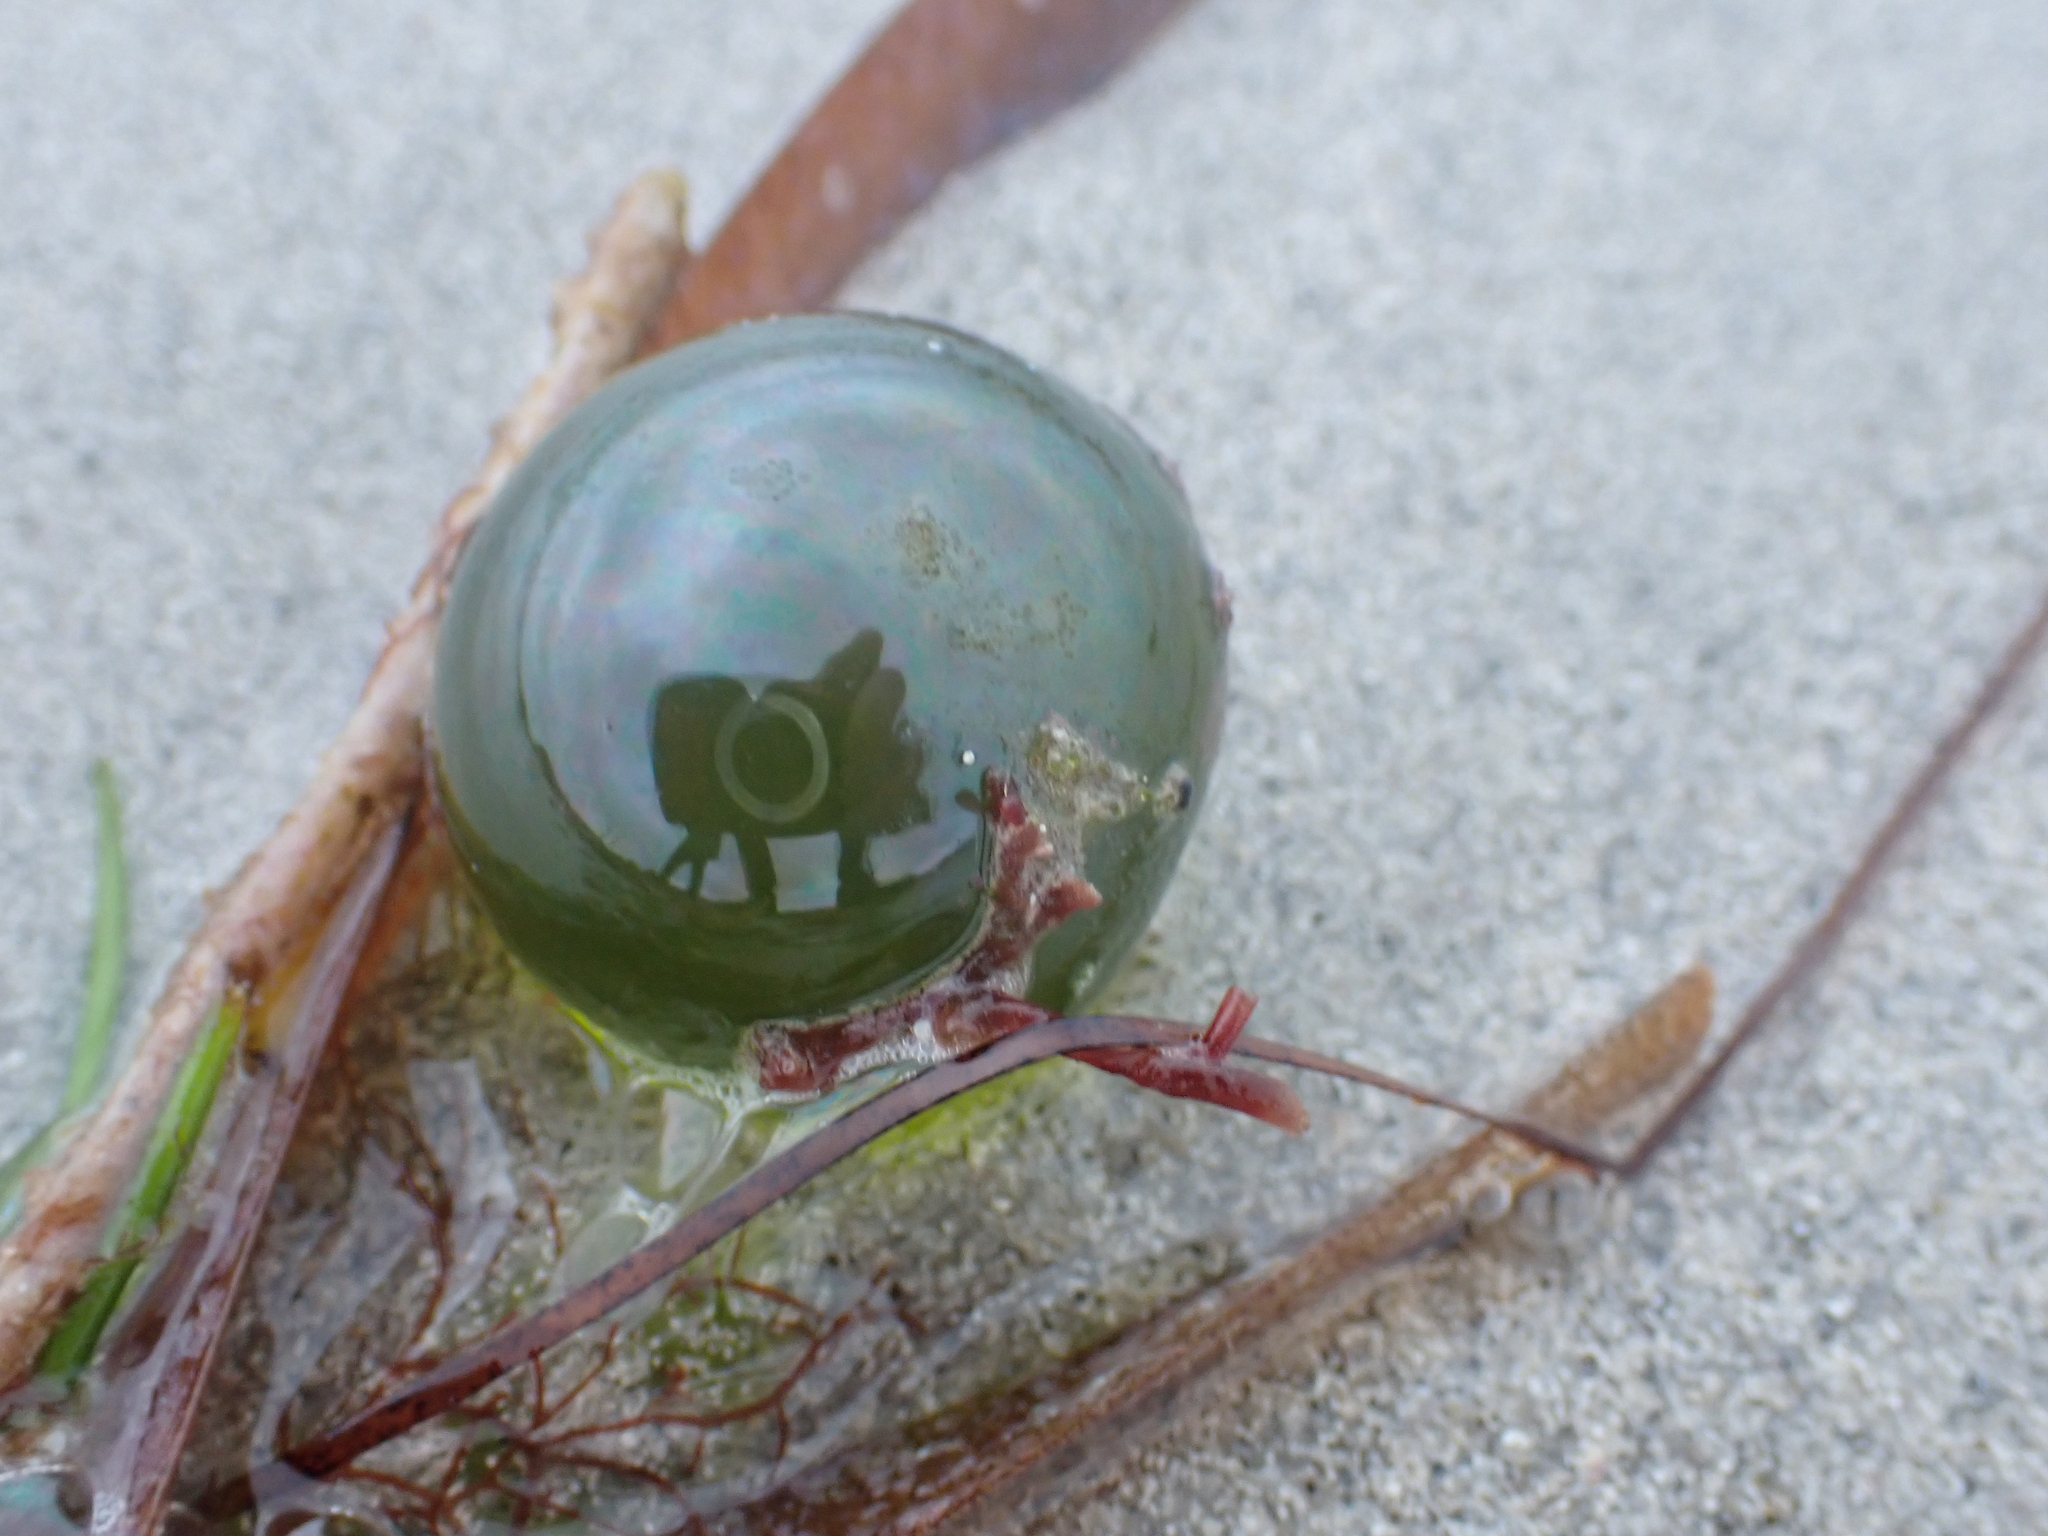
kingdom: Plantae
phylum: Chlorophyta
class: Ulvophyceae
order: Siphonocladales
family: Valoniaceae
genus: Valonia
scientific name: Valonia ventricosa
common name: Sea pearl
